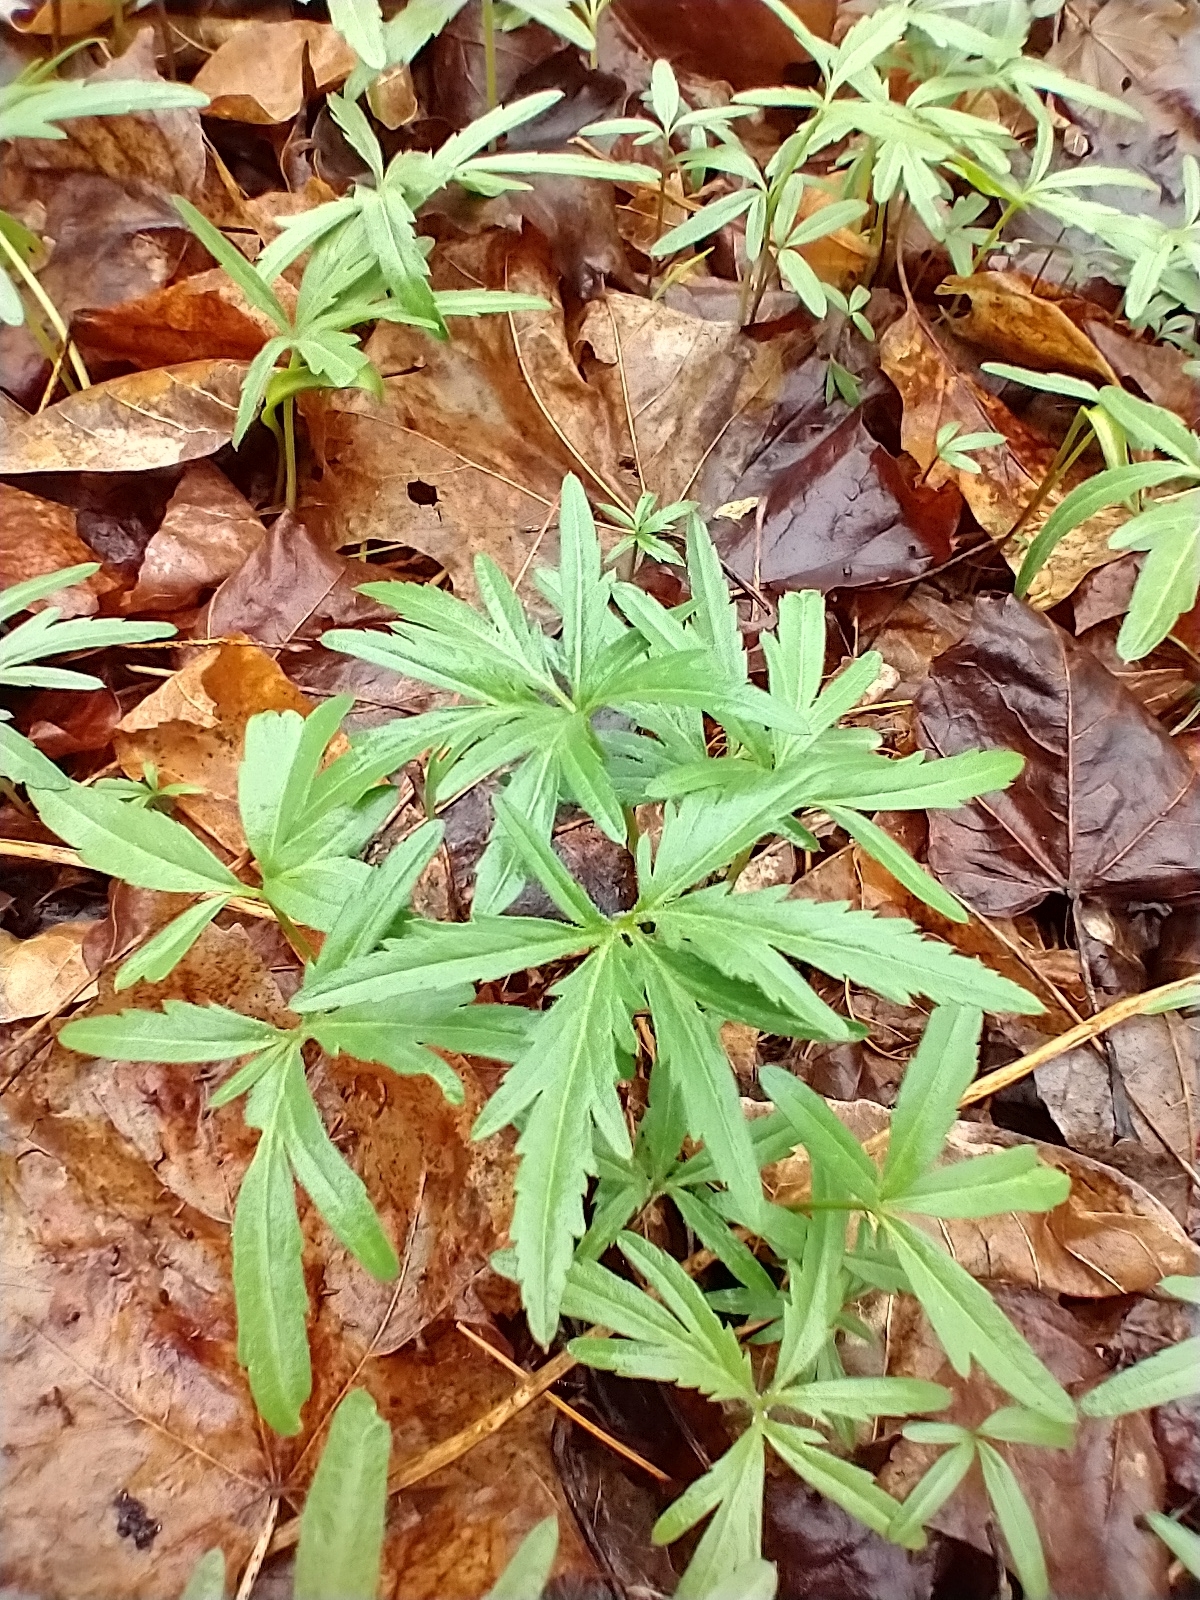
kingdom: Plantae
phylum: Tracheophyta
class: Magnoliopsida
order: Brassicales
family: Brassicaceae
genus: Cardamine
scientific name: Cardamine concatenata
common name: Cut-leaf toothcup
